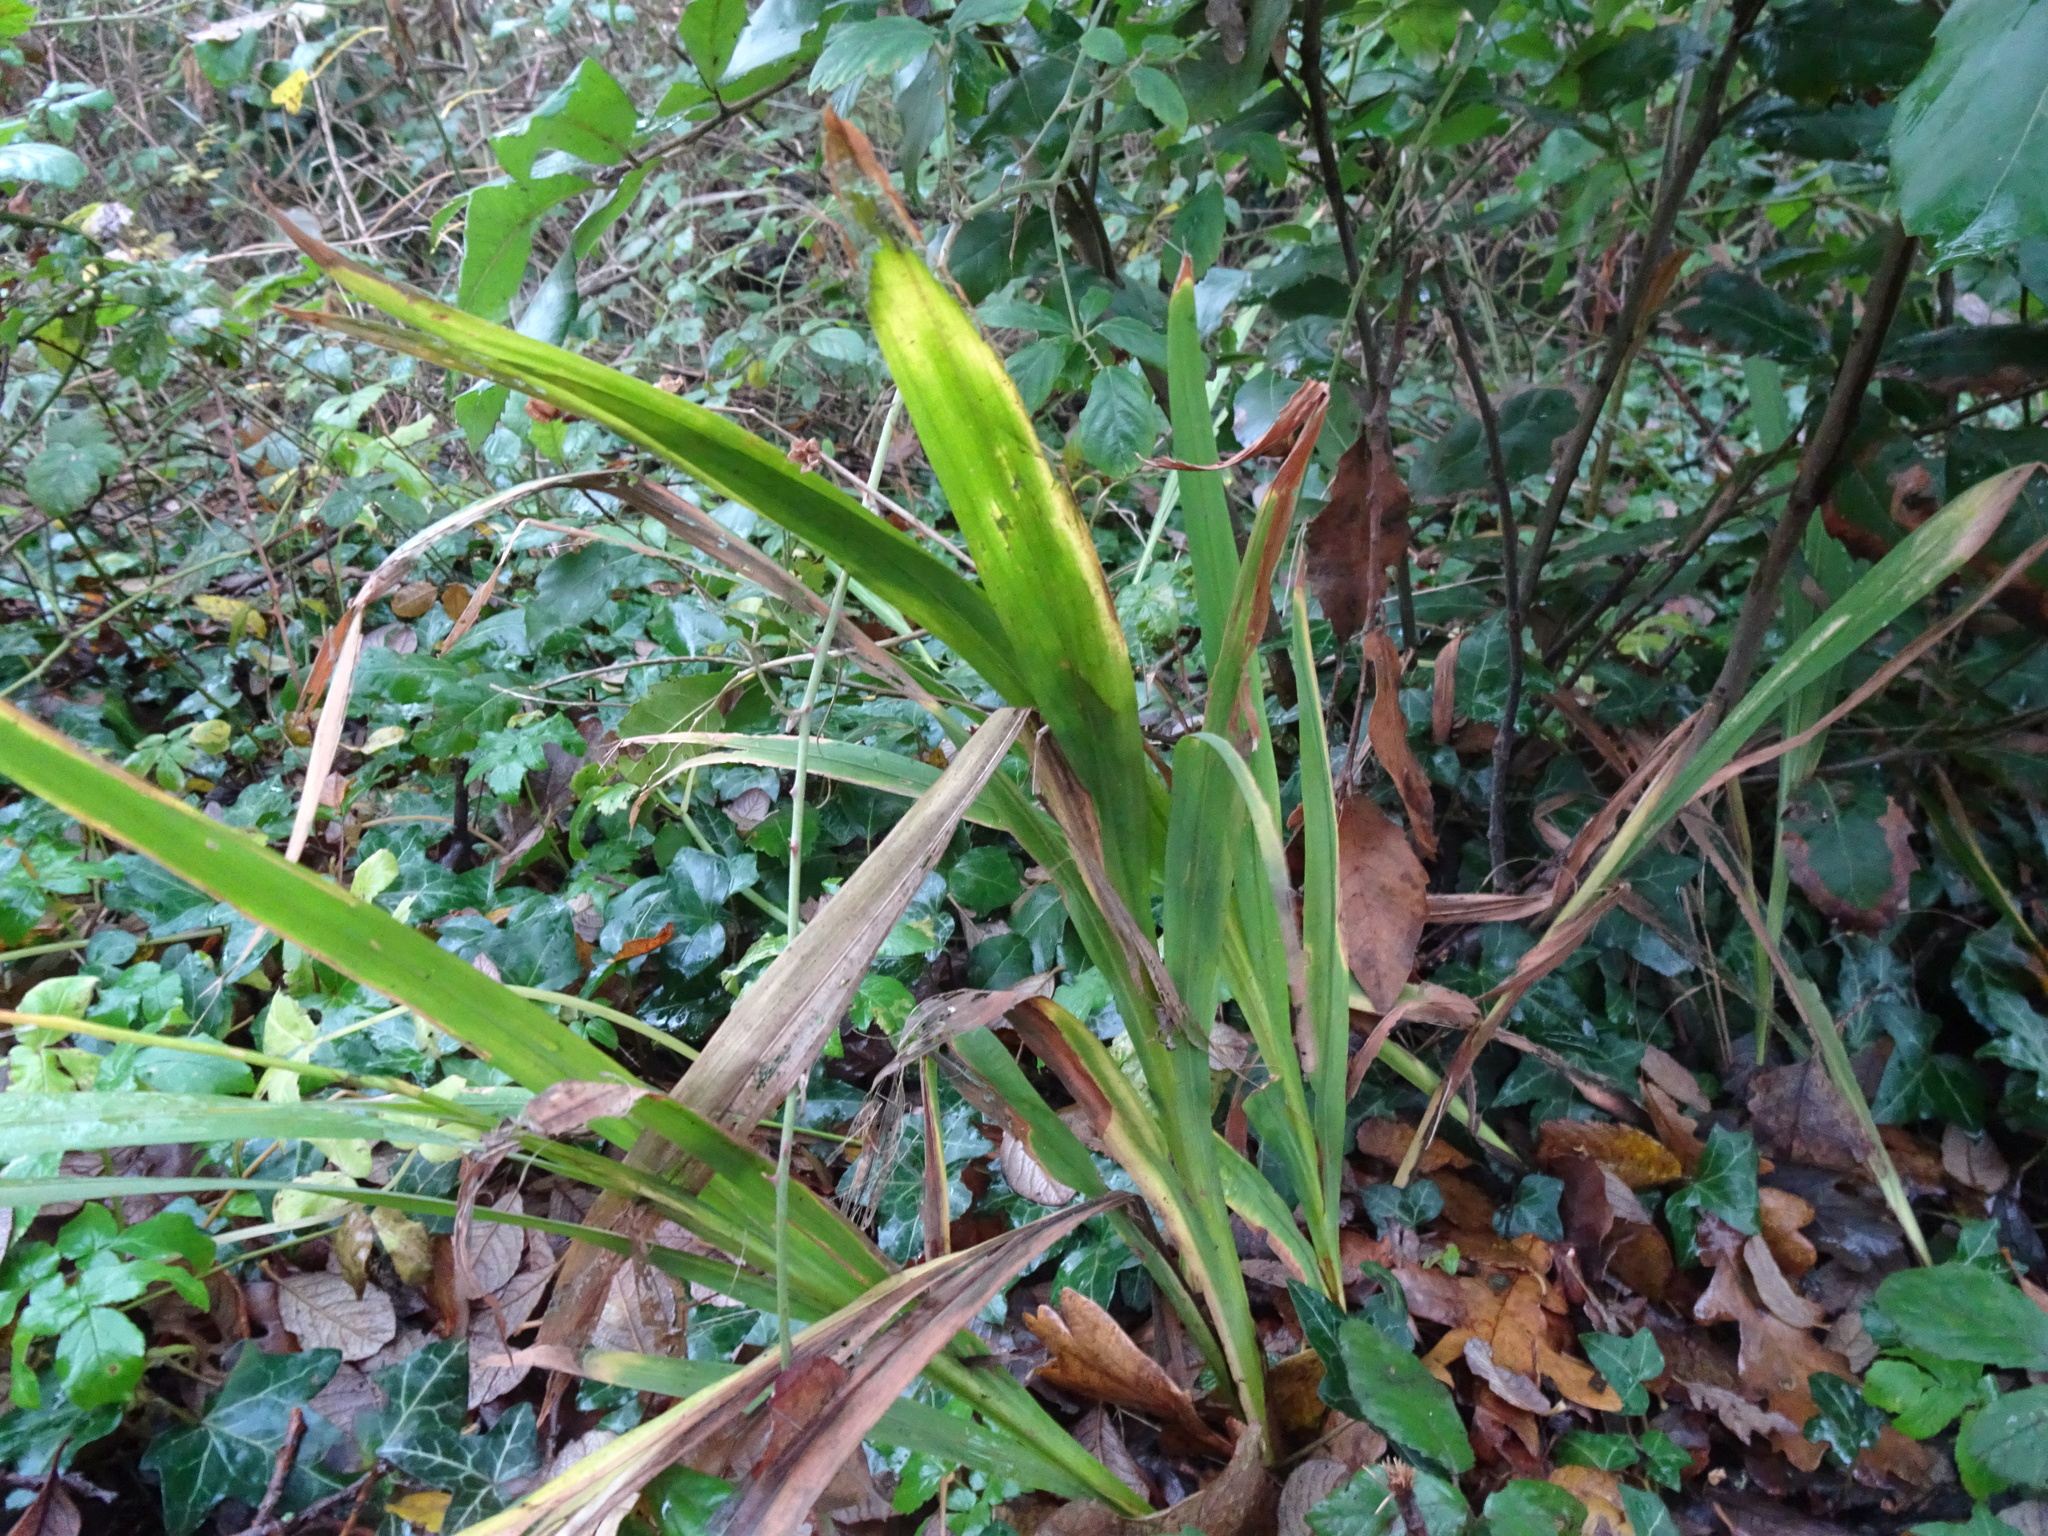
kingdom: Plantae
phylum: Tracheophyta
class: Liliopsida
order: Asparagales
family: Iridaceae
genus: Crocosmia
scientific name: Crocosmia crocosmiiflora
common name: Montbretia
